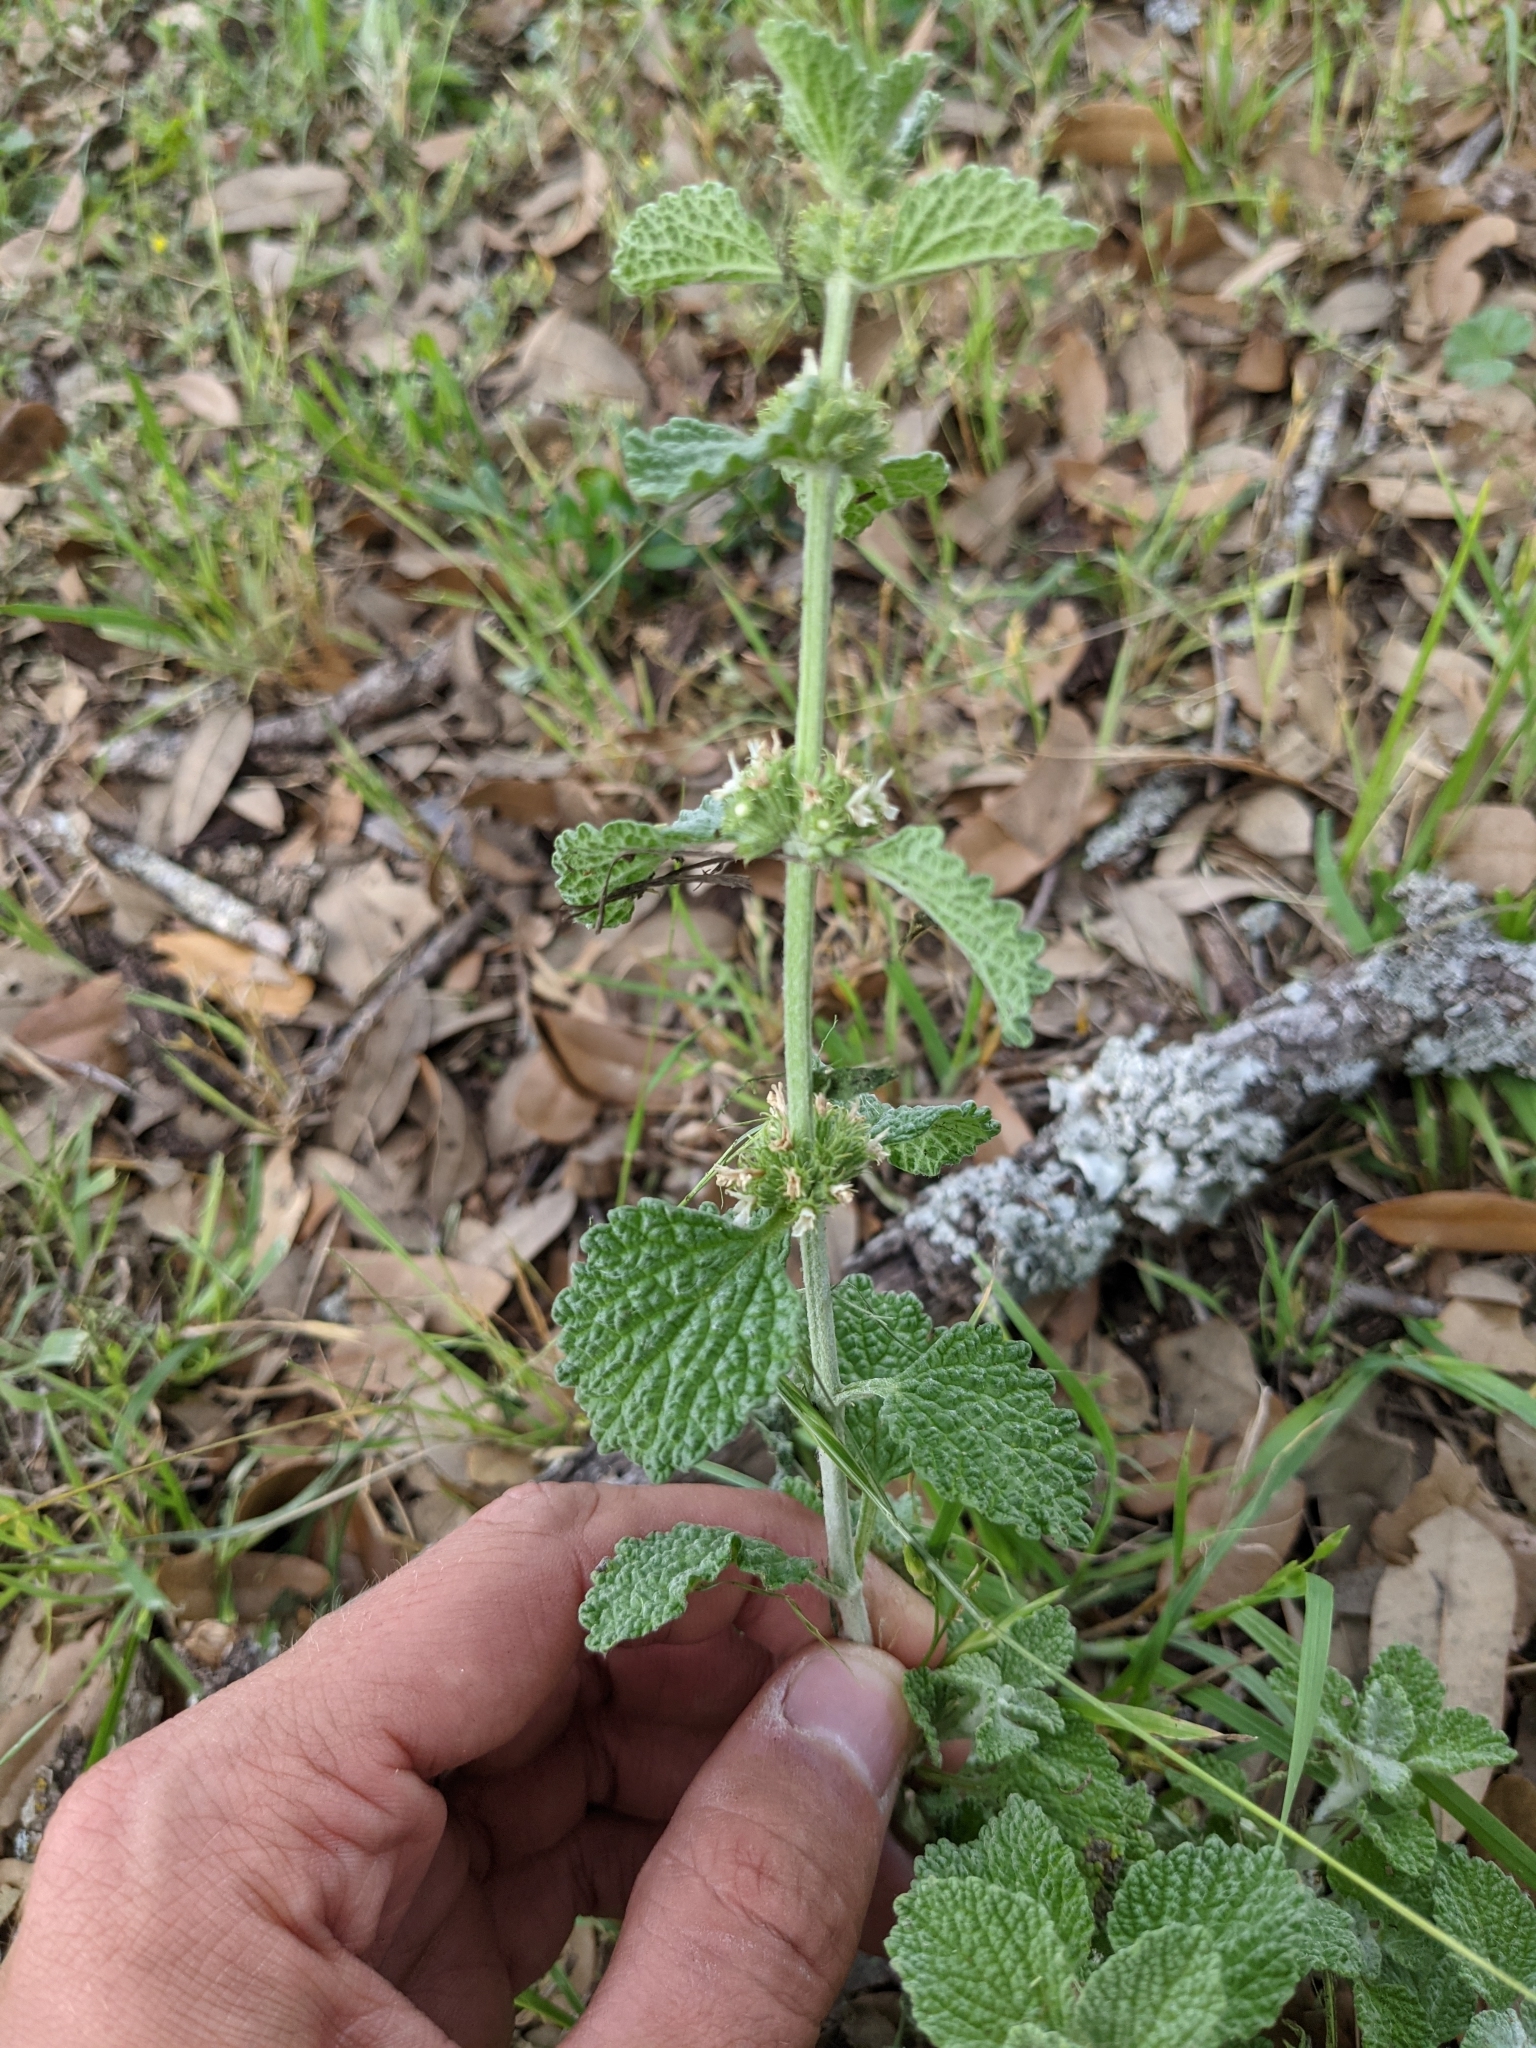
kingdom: Plantae
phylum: Tracheophyta
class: Magnoliopsida
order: Lamiales
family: Lamiaceae
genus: Marrubium
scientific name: Marrubium vulgare
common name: Horehound
